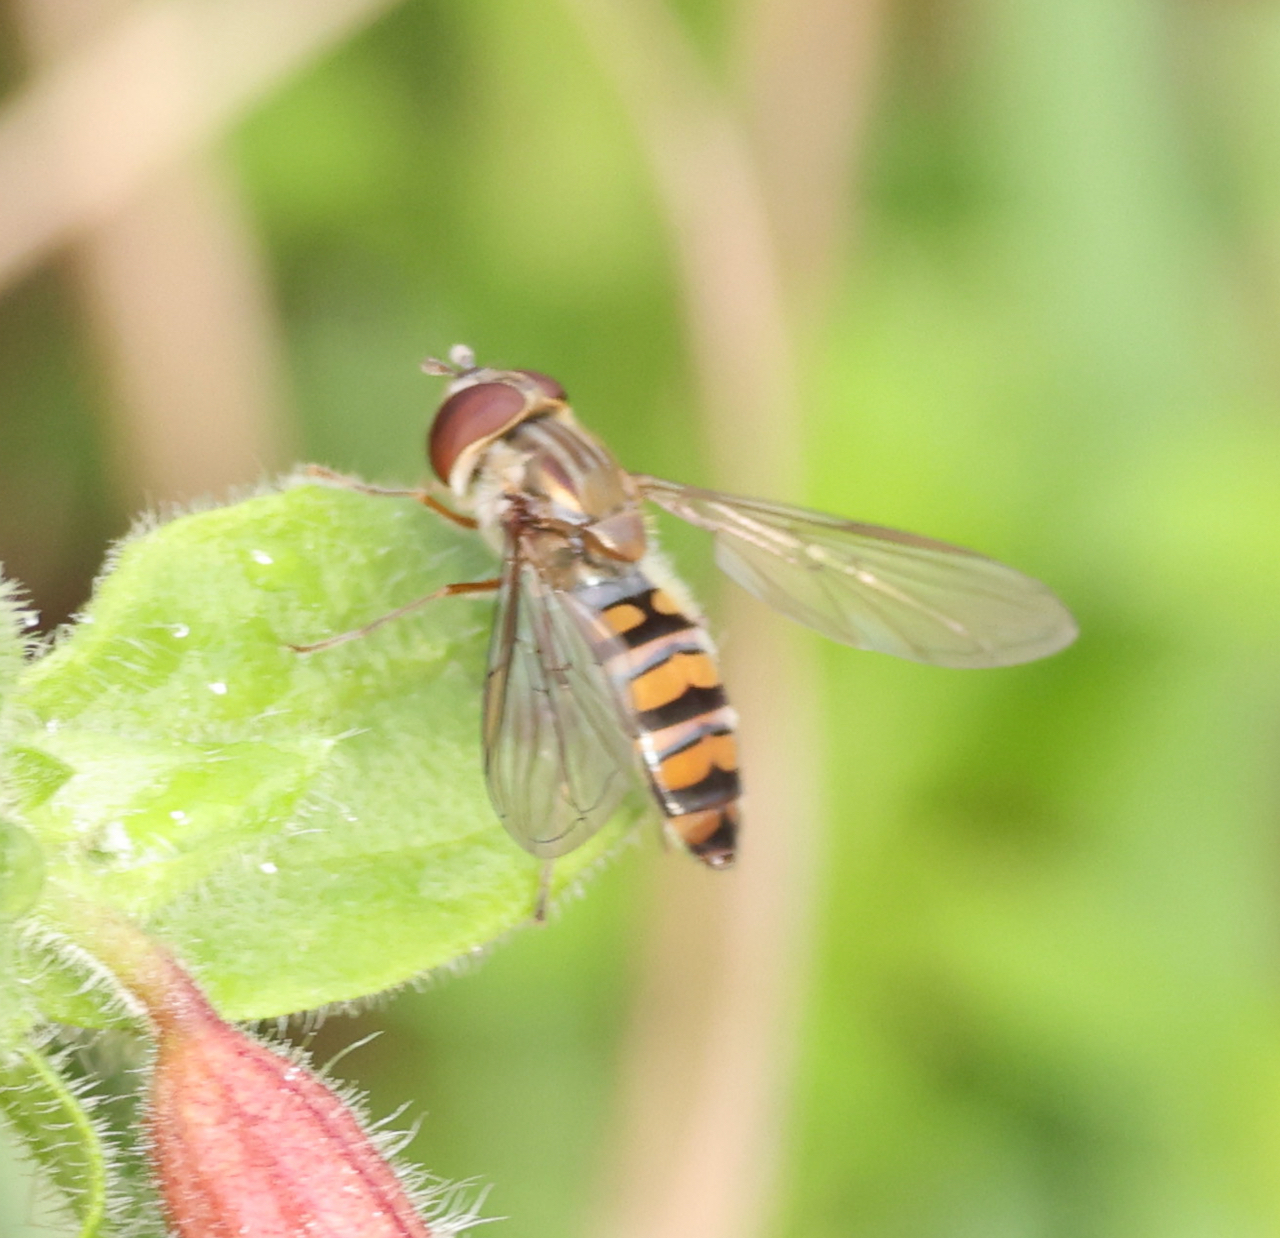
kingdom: Animalia
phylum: Arthropoda
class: Insecta
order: Diptera
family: Syrphidae
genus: Episyrphus
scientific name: Episyrphus balteatus
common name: Marmalade hoverfly
